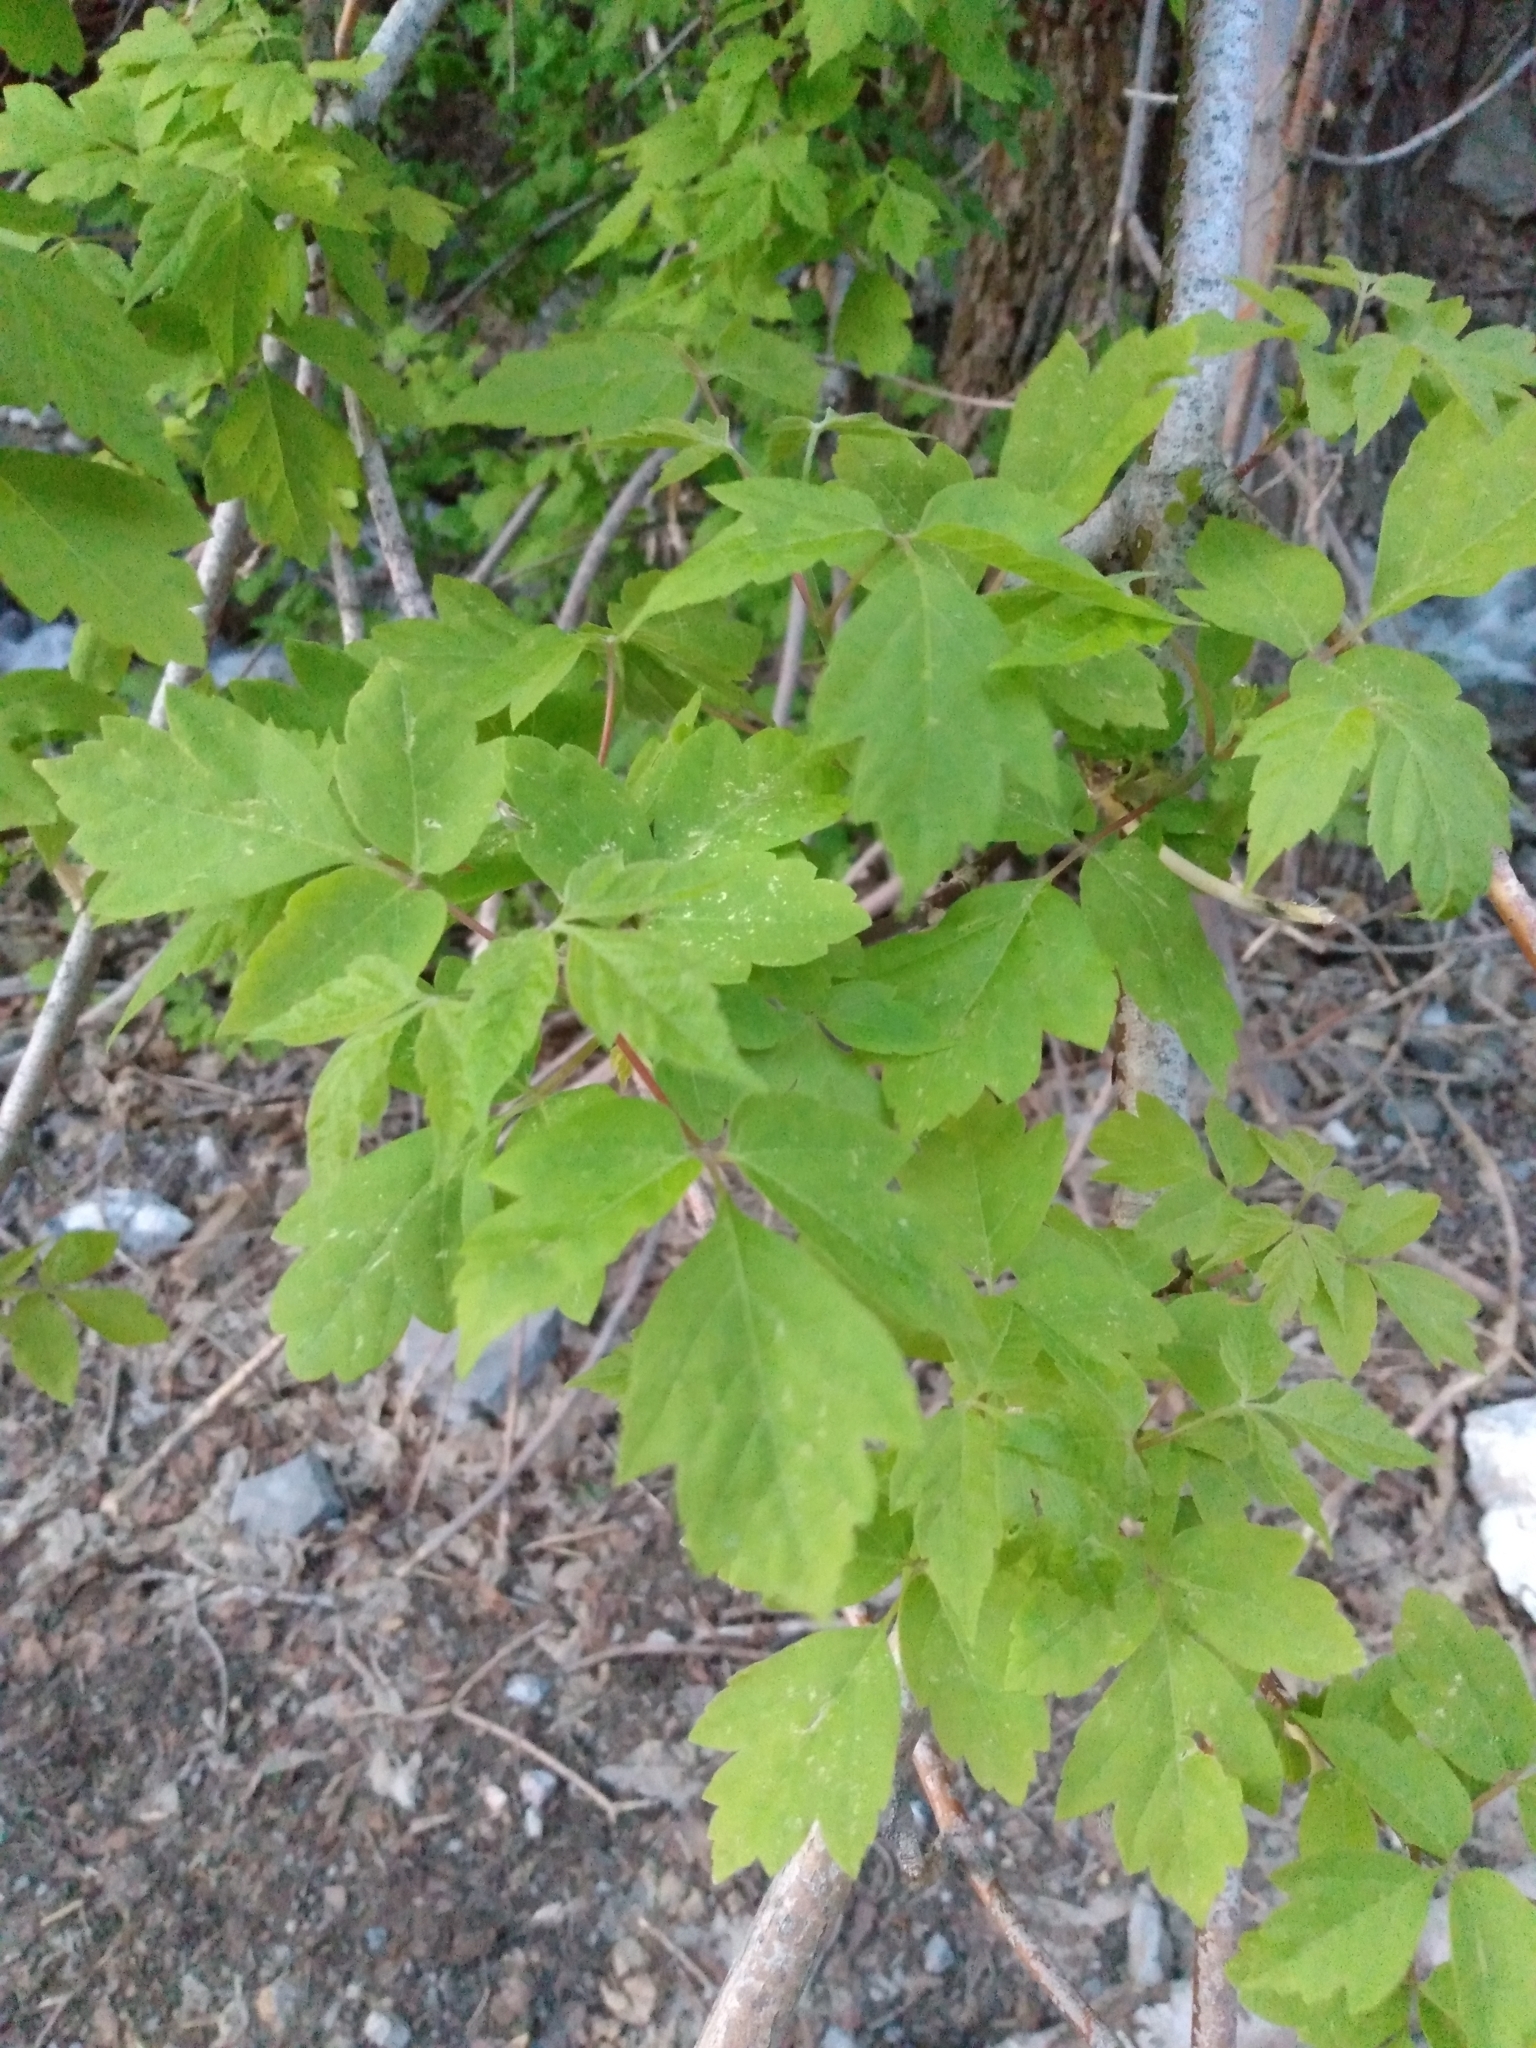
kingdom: Plantae
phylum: Tracheophyta
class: Magnoliopsida
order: Sapindales
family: Sapindaceae
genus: Acer
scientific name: Acer negundo
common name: Ashleaf maple
